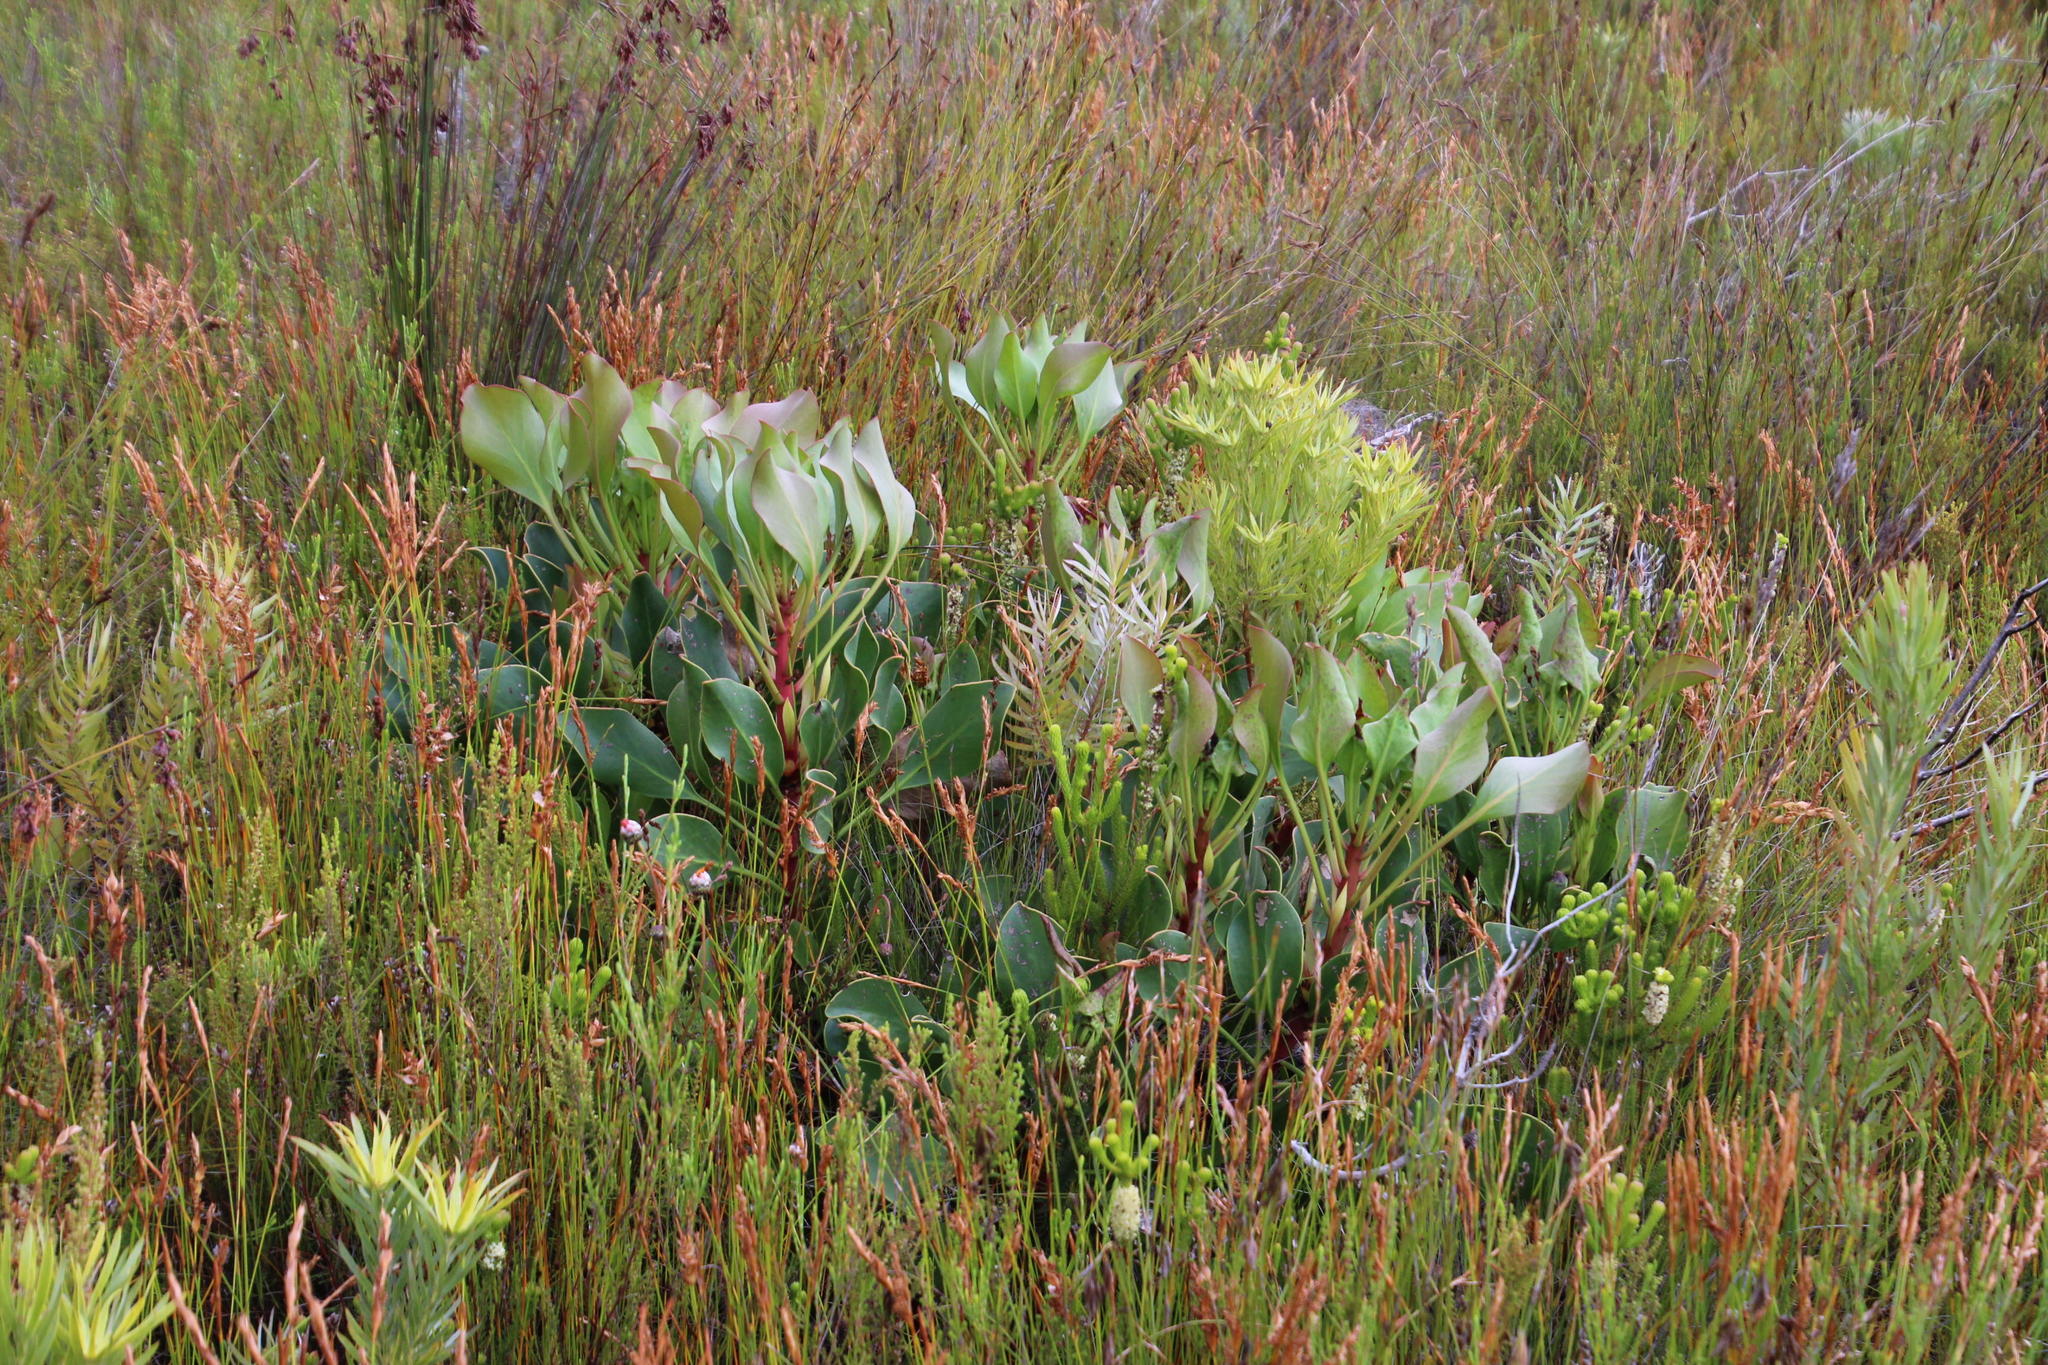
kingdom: Plantae
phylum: Tracheophyta
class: Magnoliopsida
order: Proteales
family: Proteaceae
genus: Protea
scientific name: Protea cynaroides
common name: King protea
